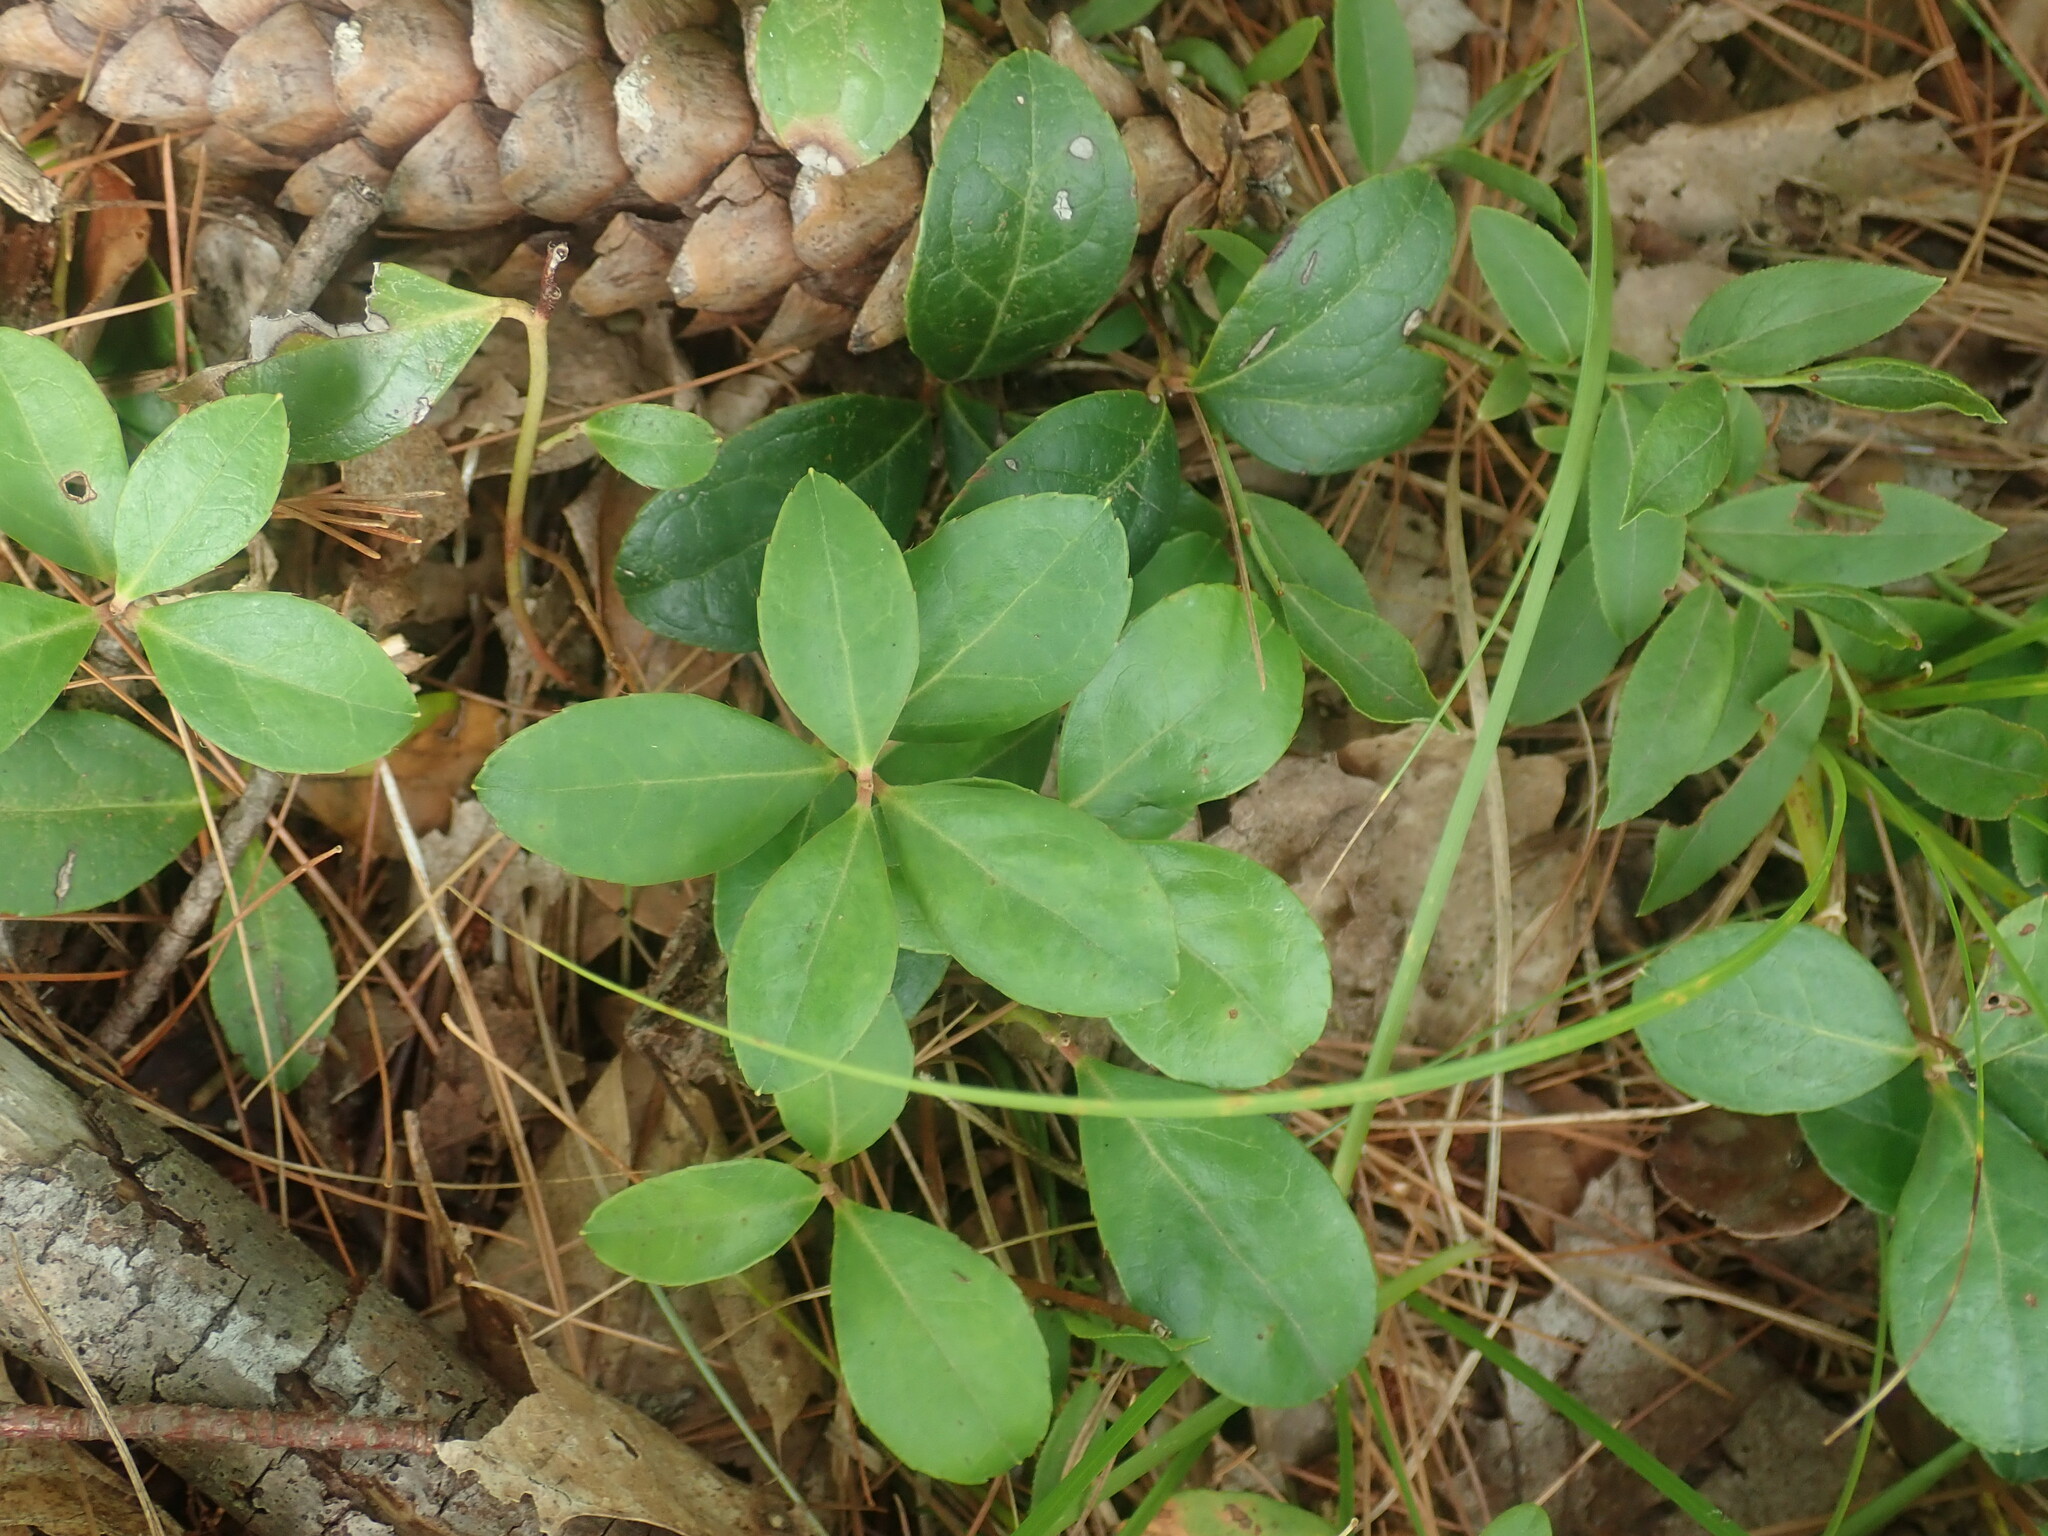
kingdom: Plantae
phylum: Tracheophyta
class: Magnoliopsida
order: Ericales
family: Ericaceae
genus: Gaultheria
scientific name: Gaultheria procumbens
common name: Checkerberry
